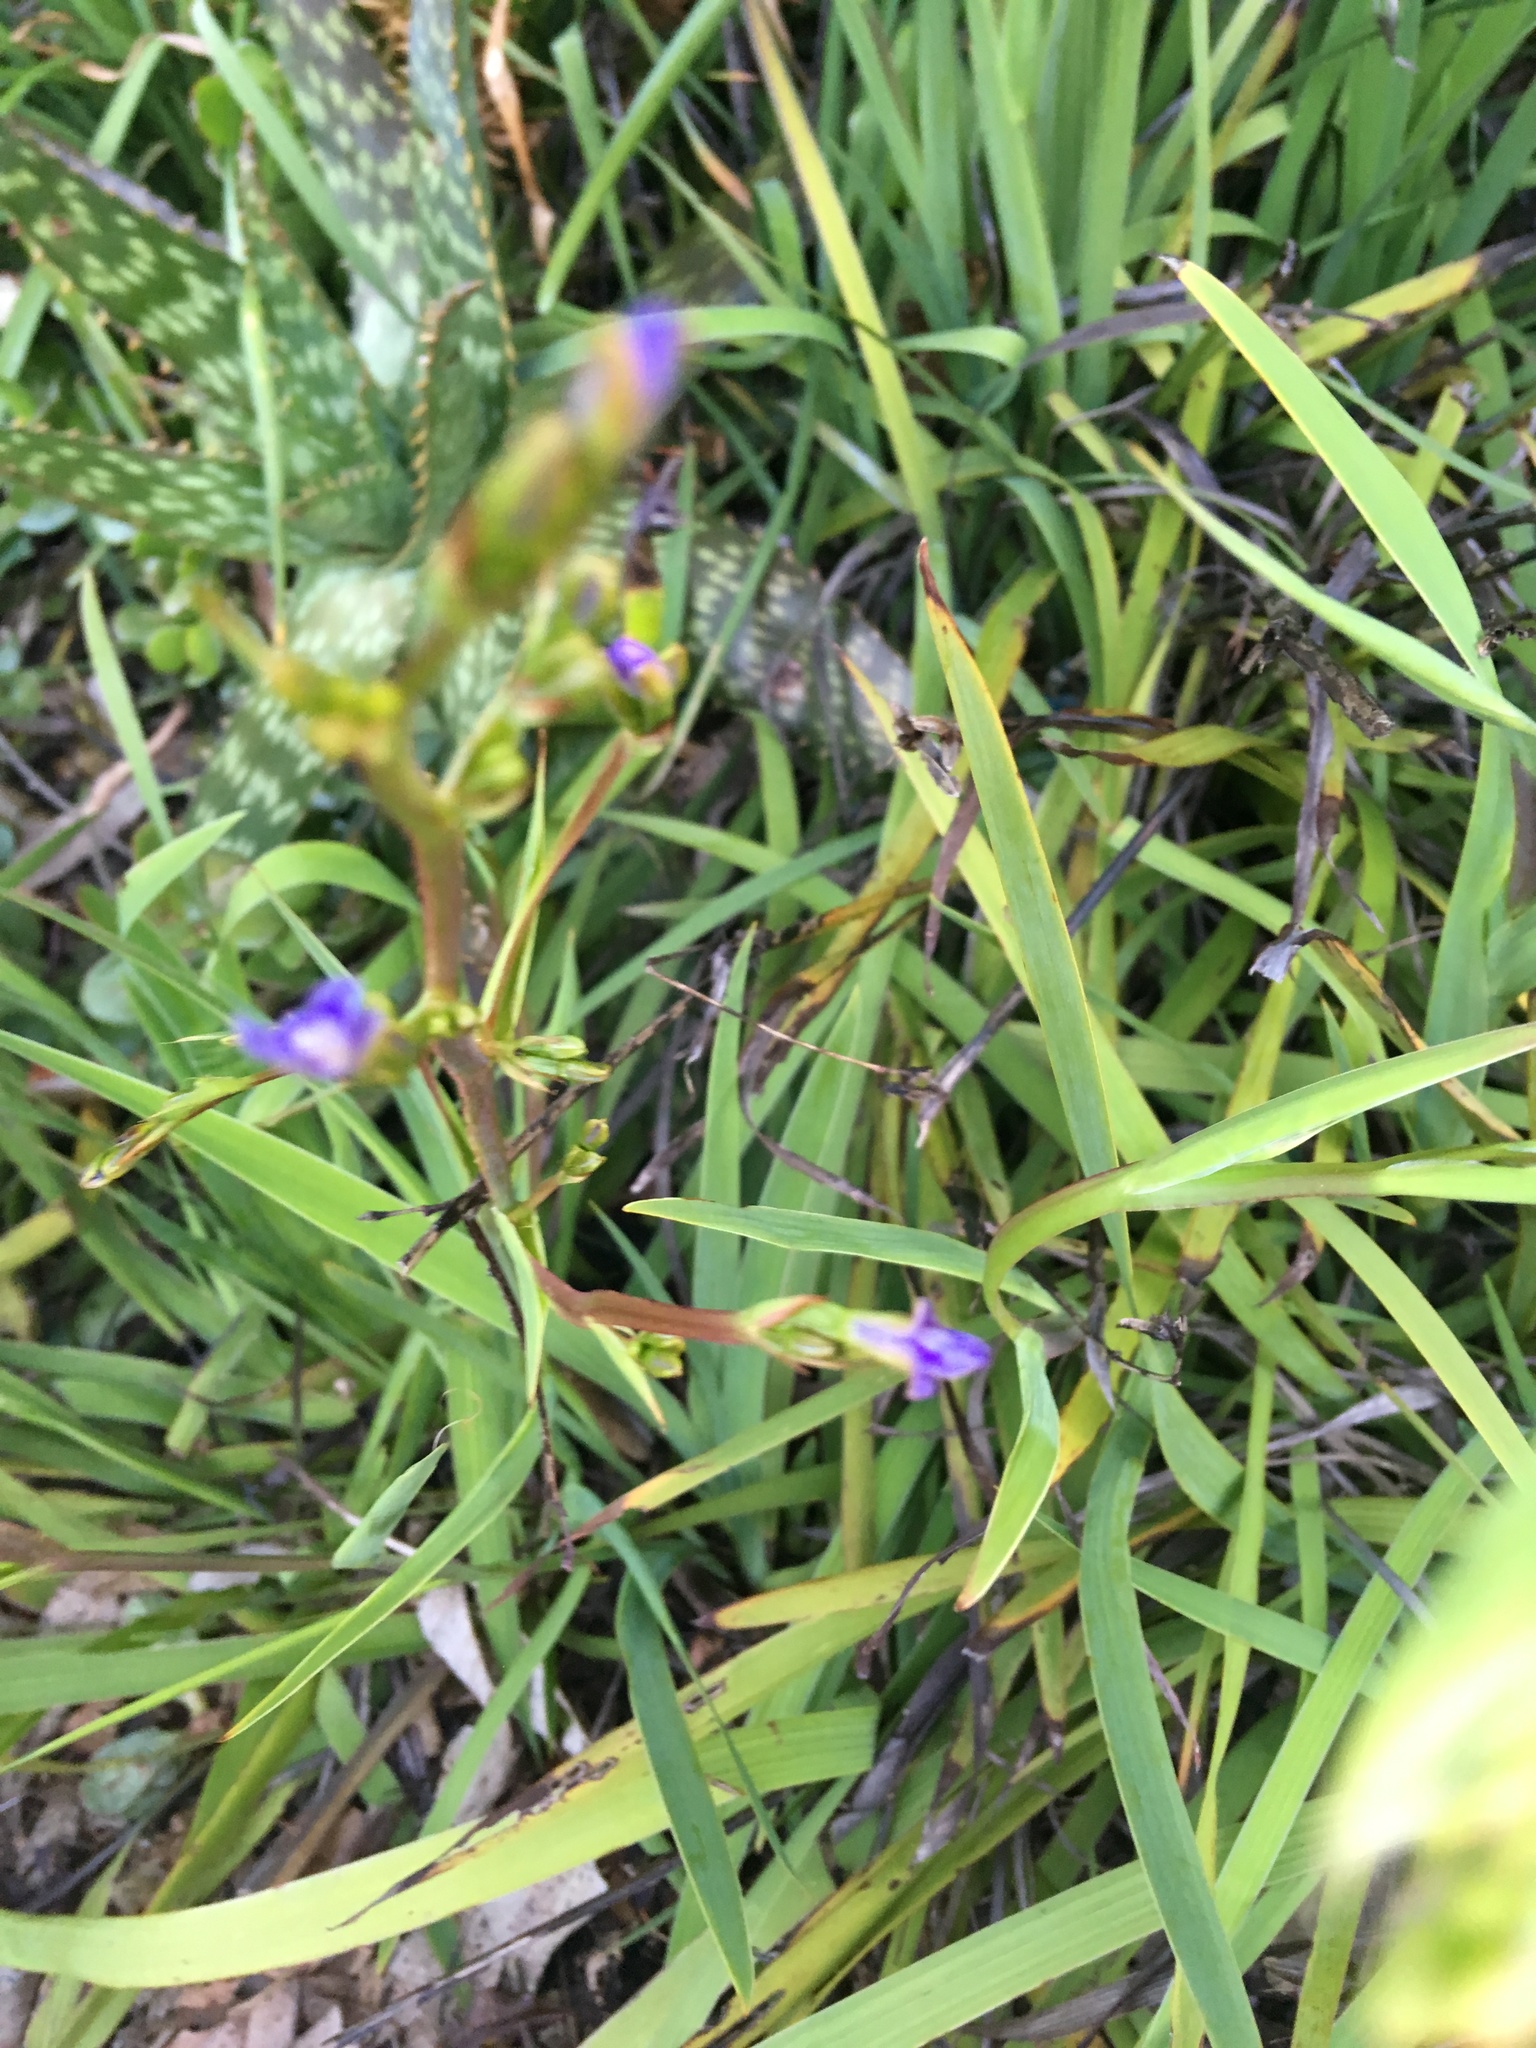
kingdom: Plantae
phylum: Tracheophyta
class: Liliopsida
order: Asparagales
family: Iridaceae
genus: Aristea
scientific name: Aristea ecklonii
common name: Blue corn-lily
